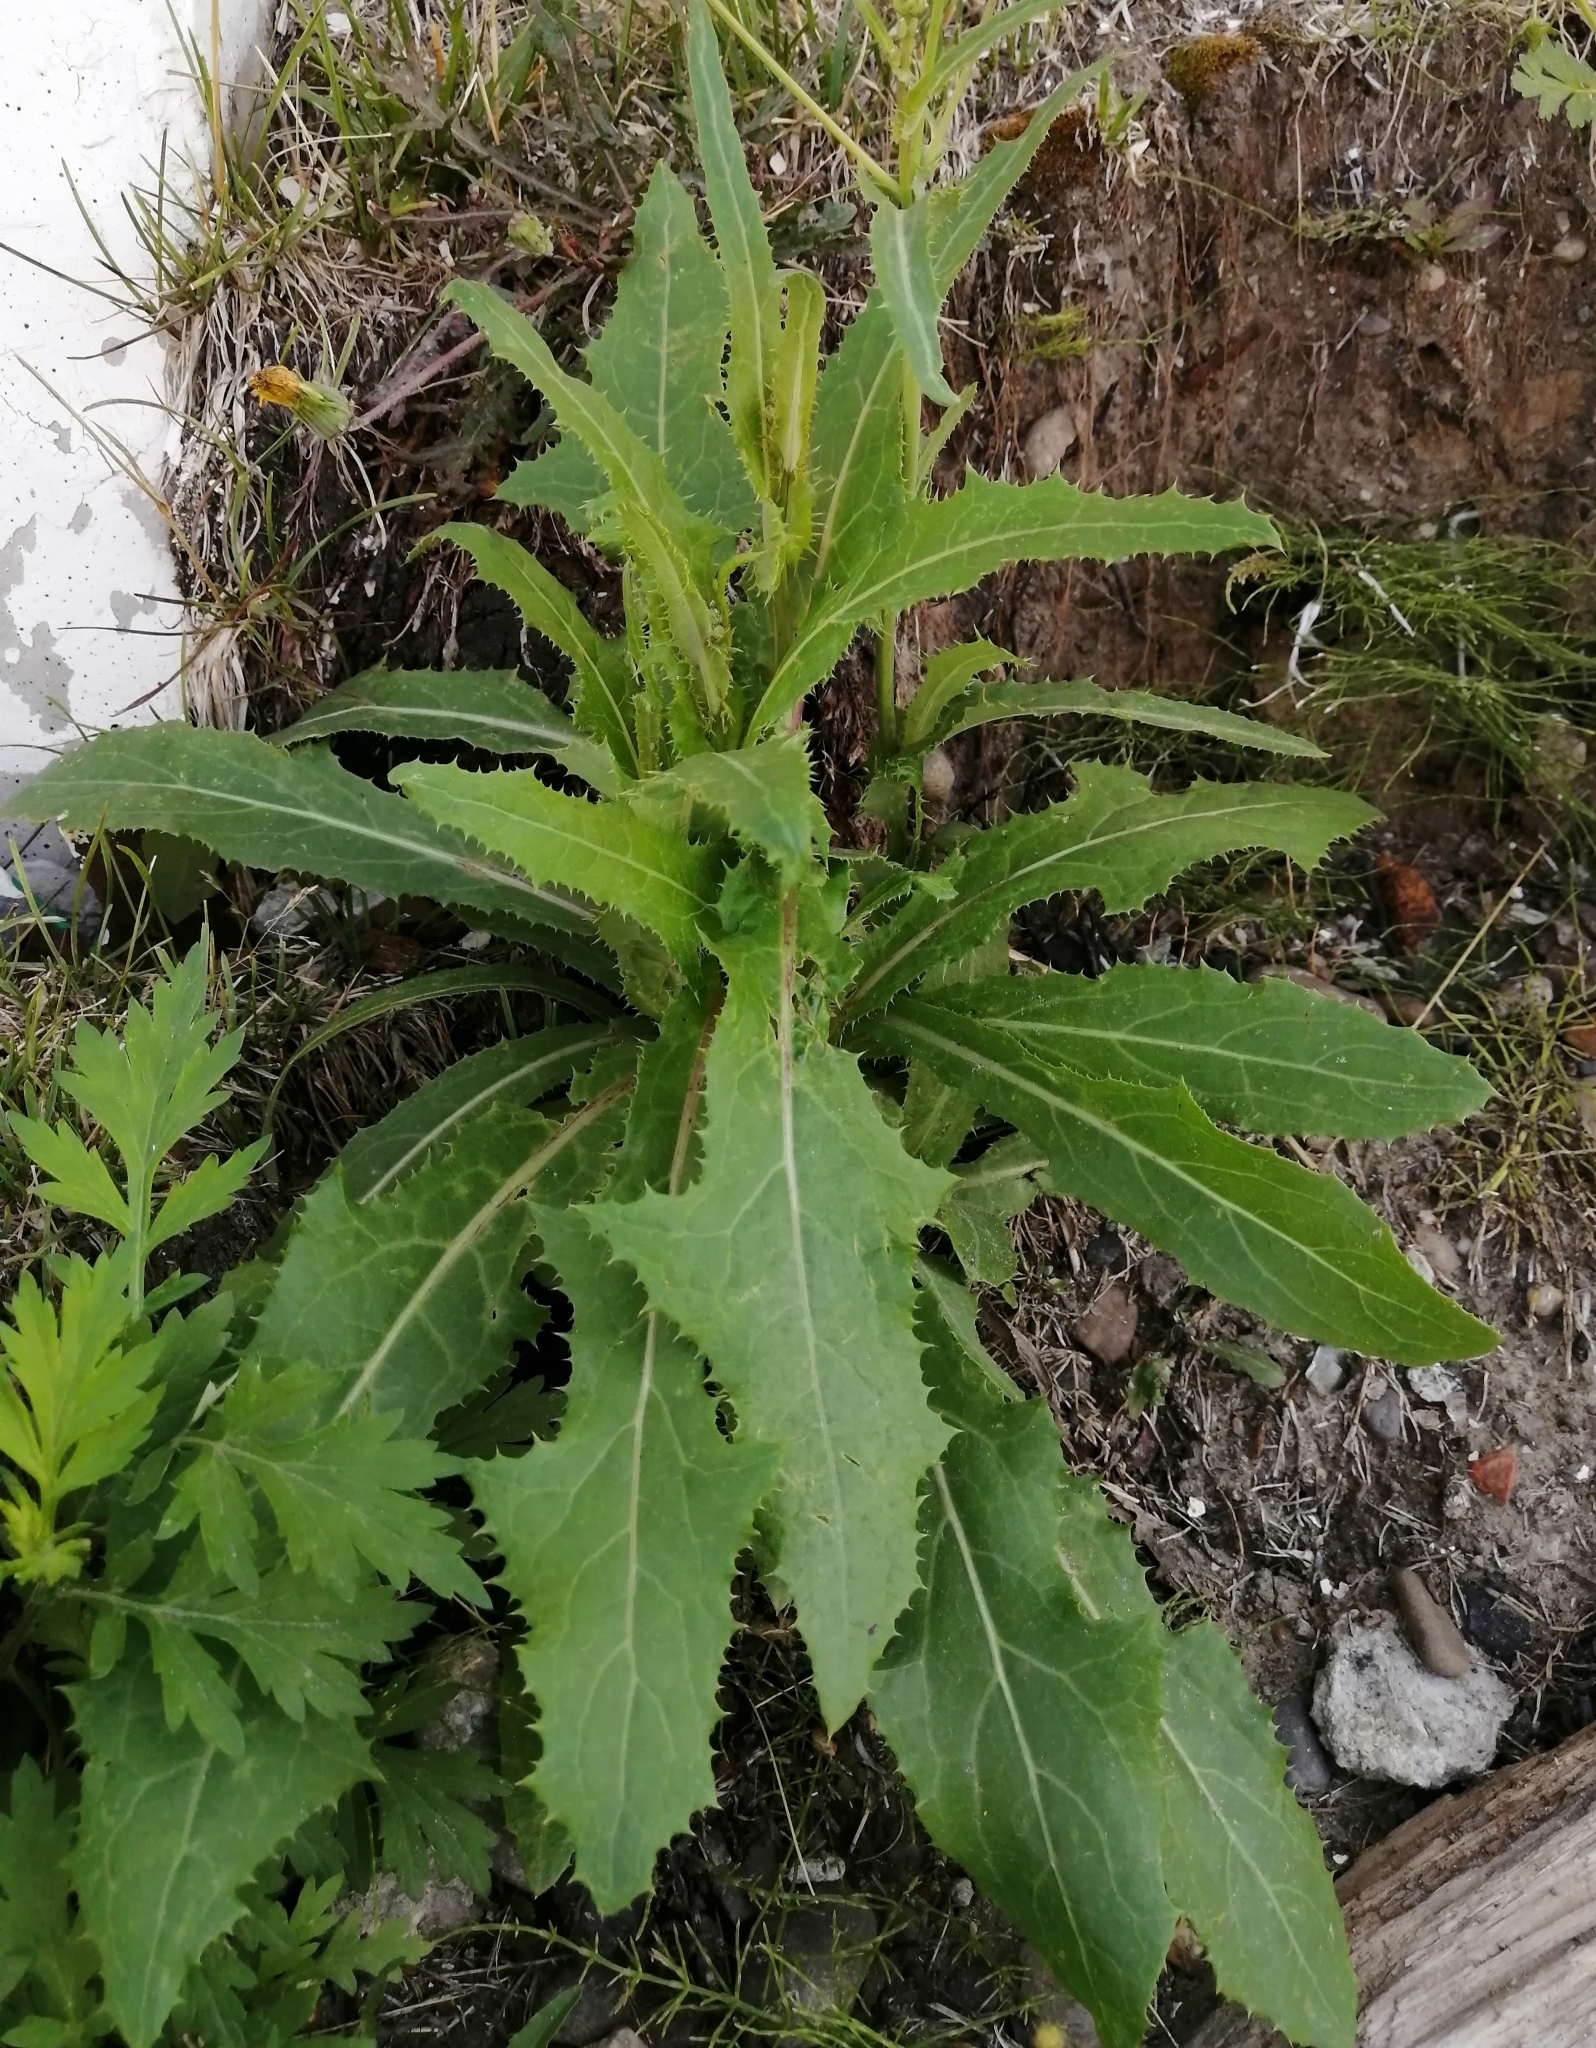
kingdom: Plantae
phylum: Tracheophyta
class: Magnoliopsida
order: Asterales
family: Asteraceae
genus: Sonchus
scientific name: Sonchus arvensis
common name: Perennial sow-thistle
